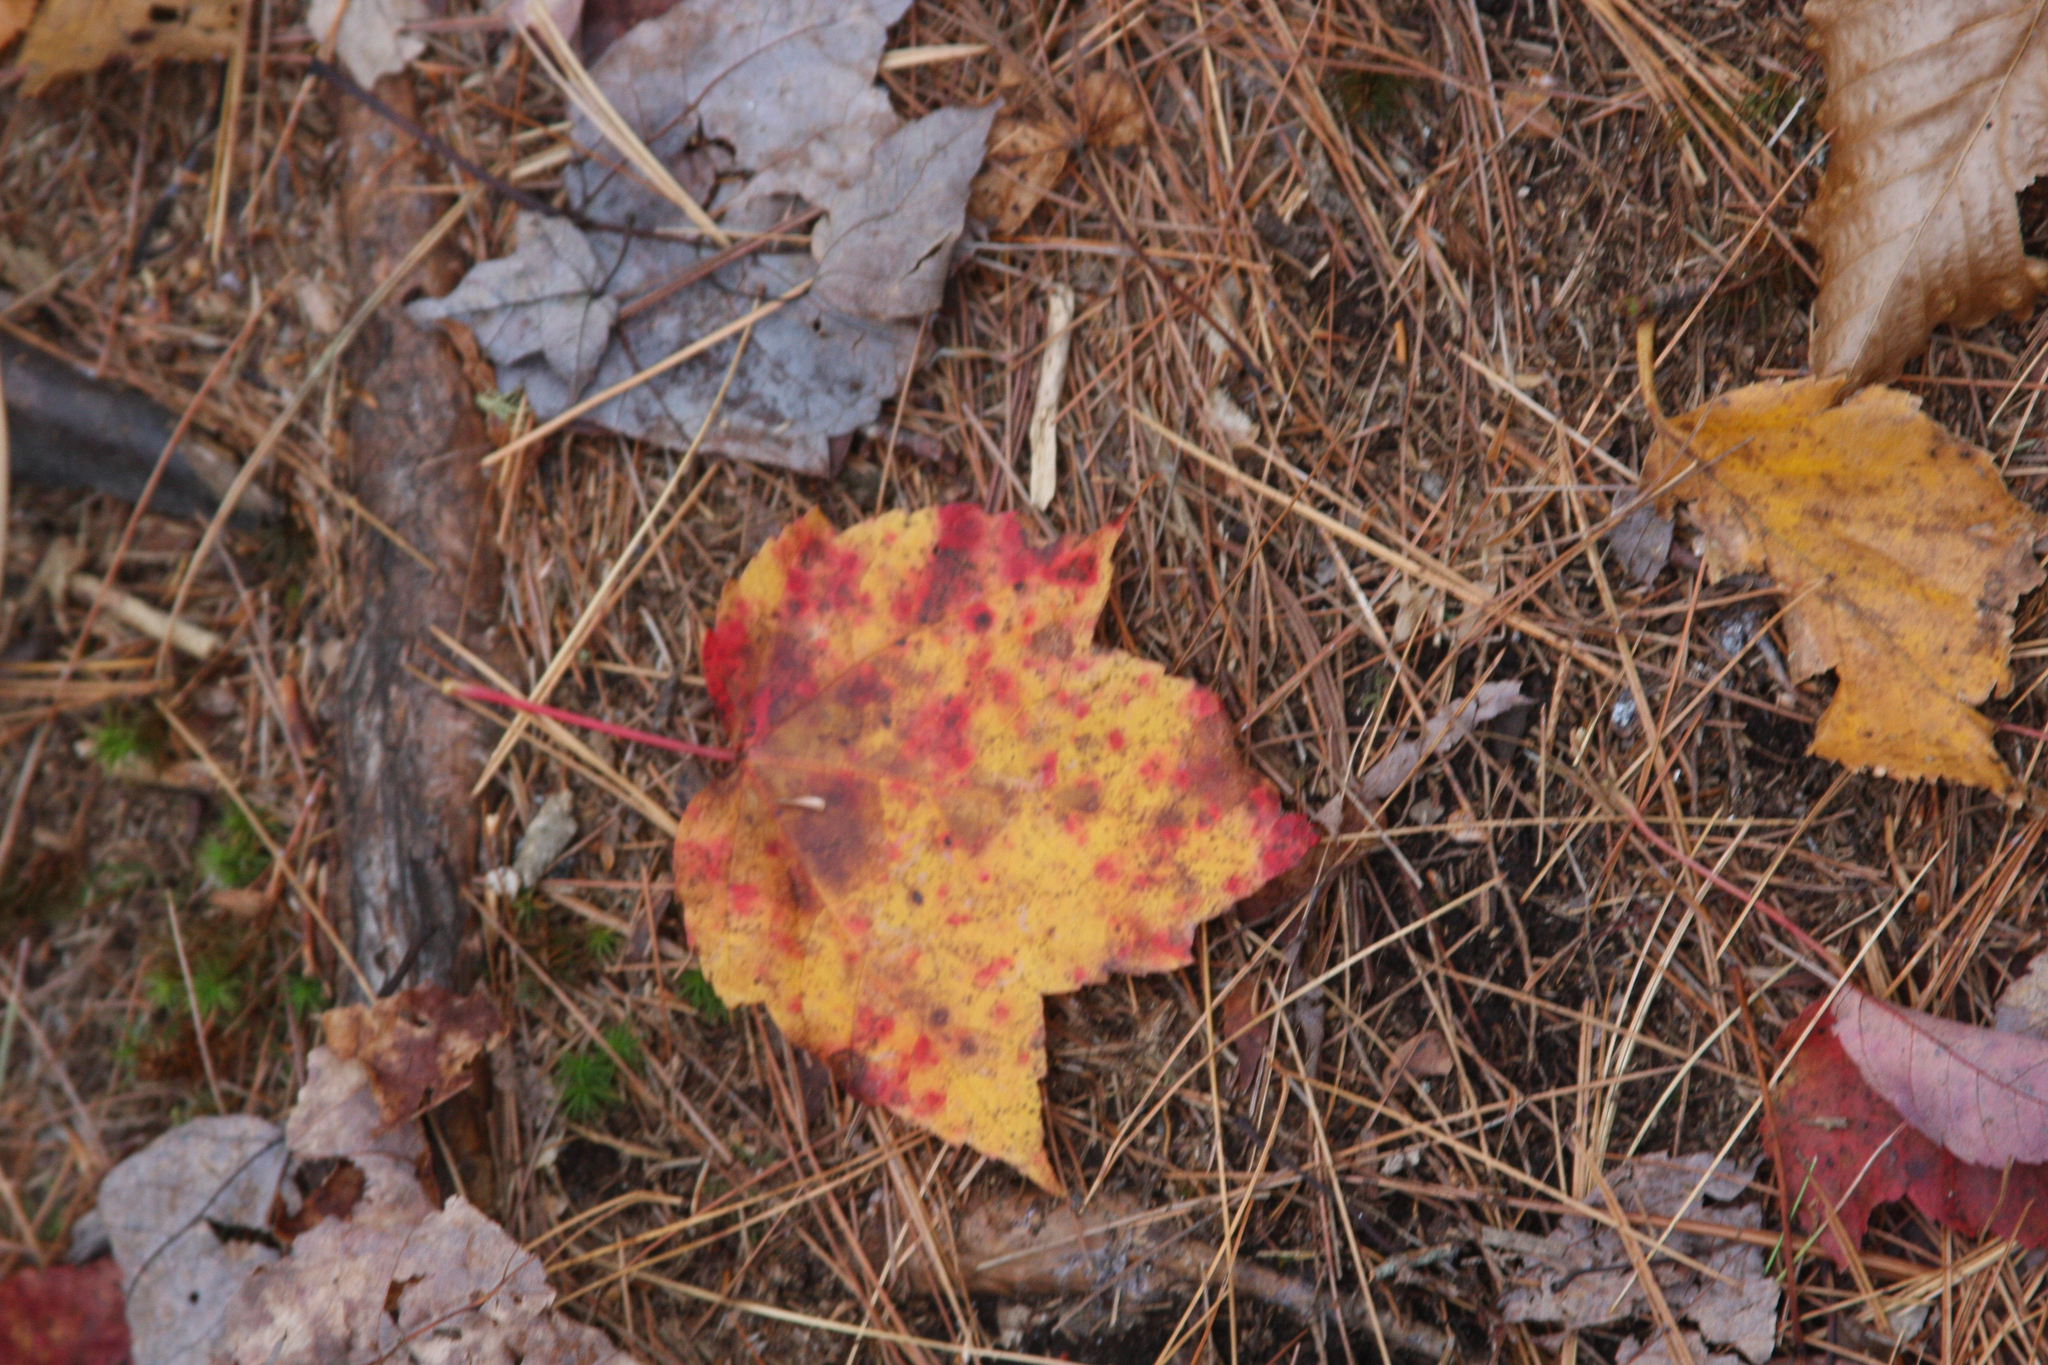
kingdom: Plantae
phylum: Tracheophyta
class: Magnoliopsida
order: Sapindales
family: Sapindaceae
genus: Acer
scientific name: Acer rubrum
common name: Red maple
